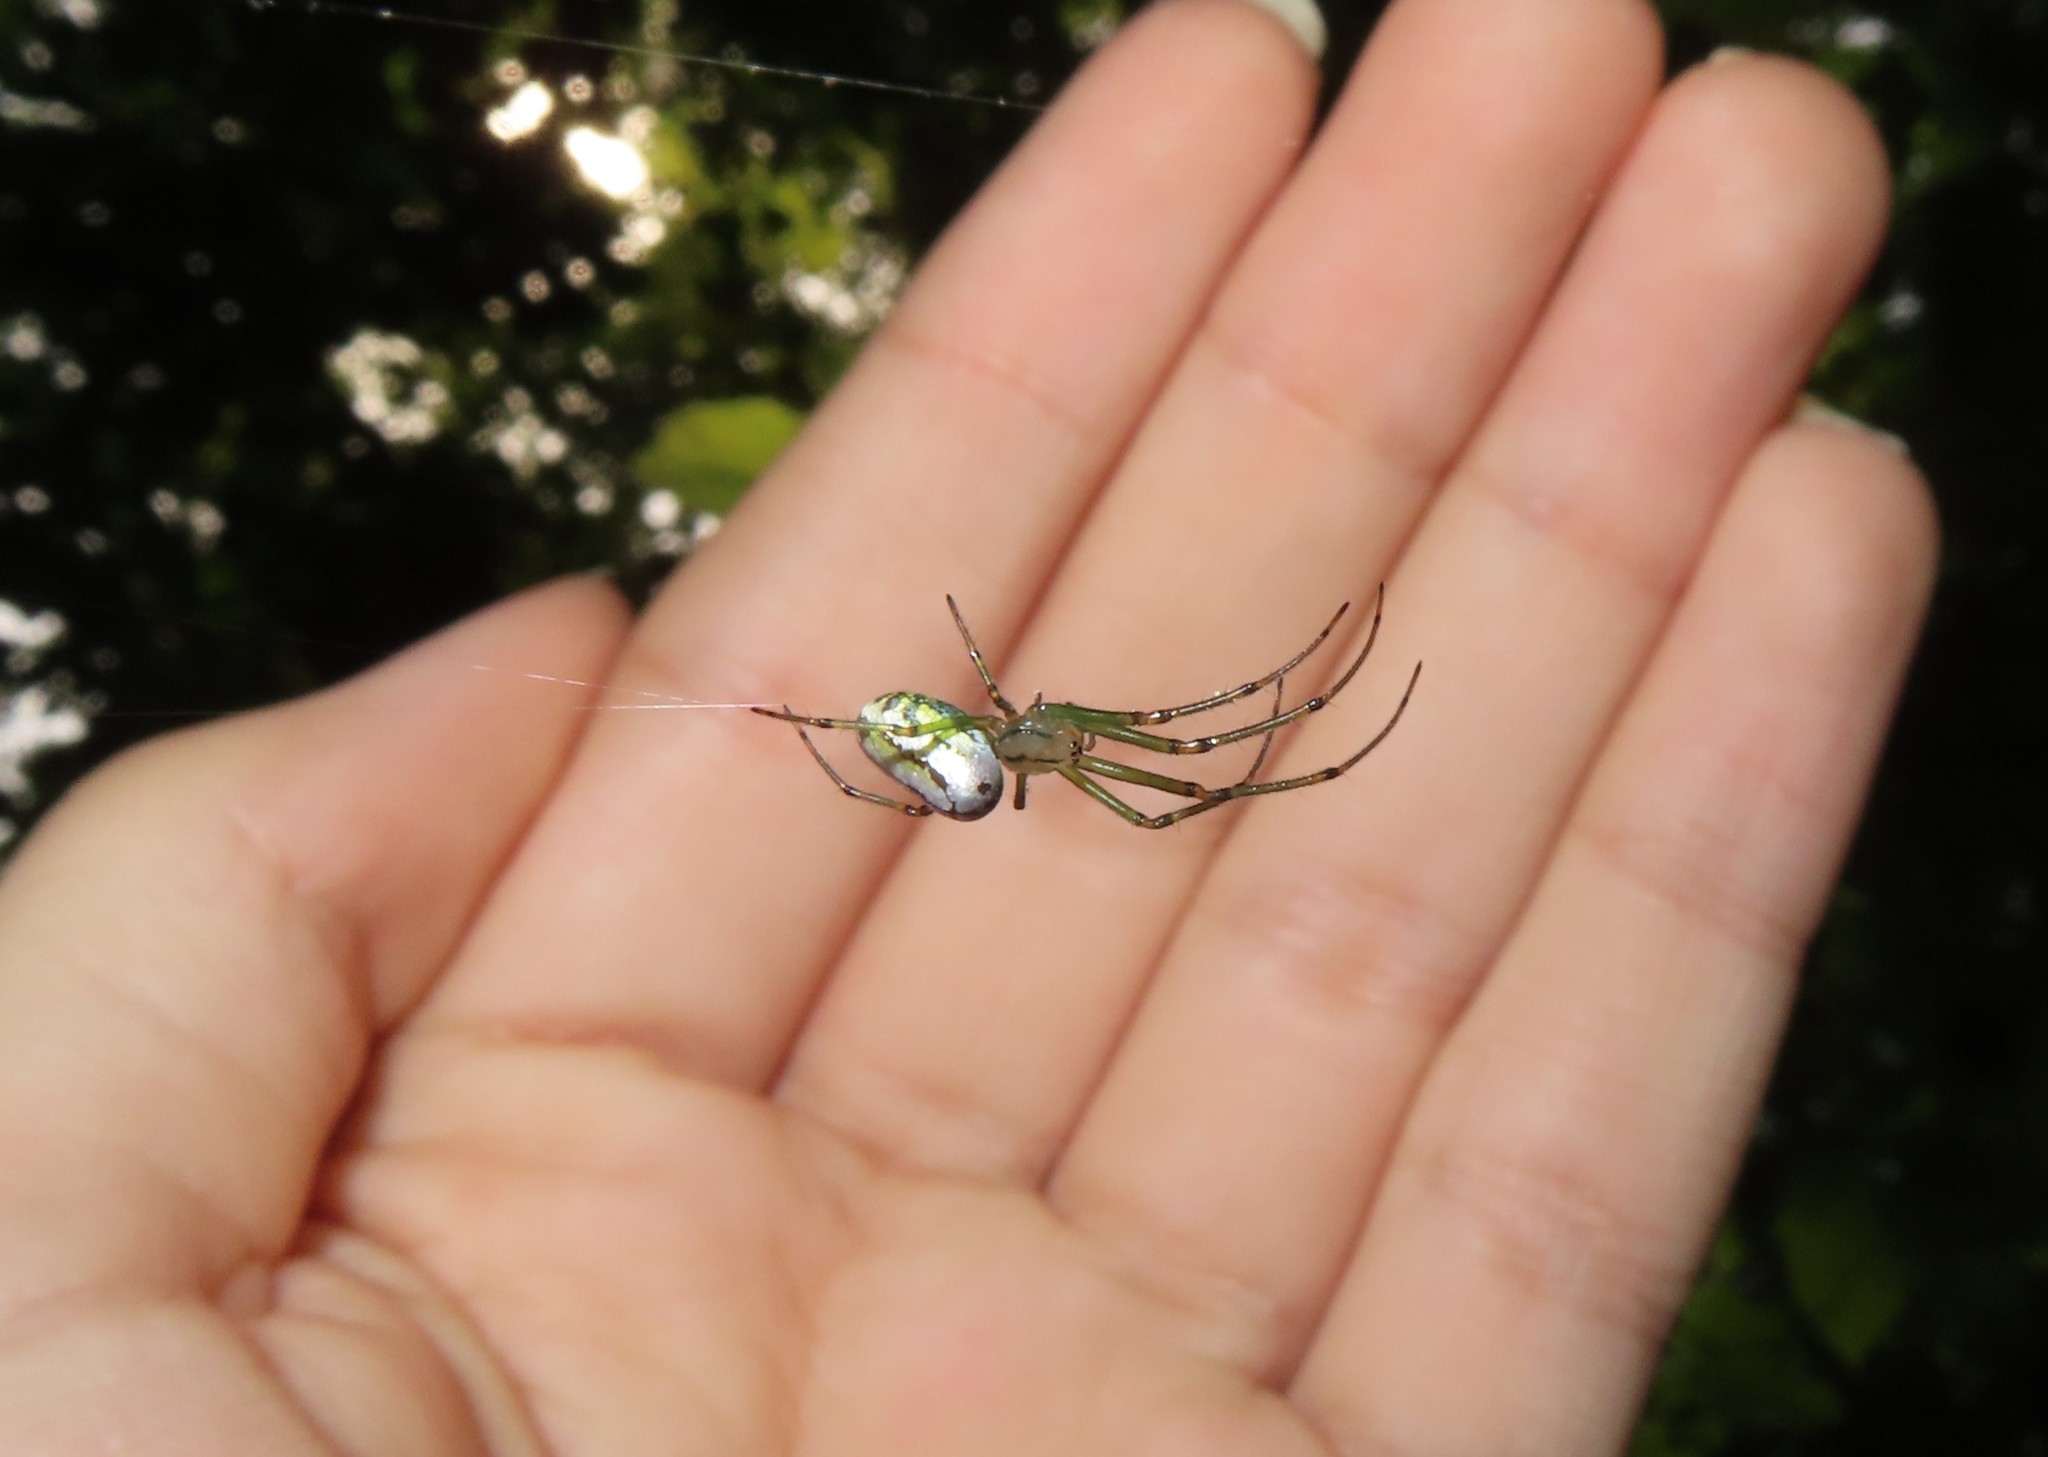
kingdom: Animalia
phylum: Arthropoda
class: Arachnida
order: Araneae
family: Tetragnathidae
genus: Leucauge
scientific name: Leucauge venusta
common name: Longjawed orb weavers
